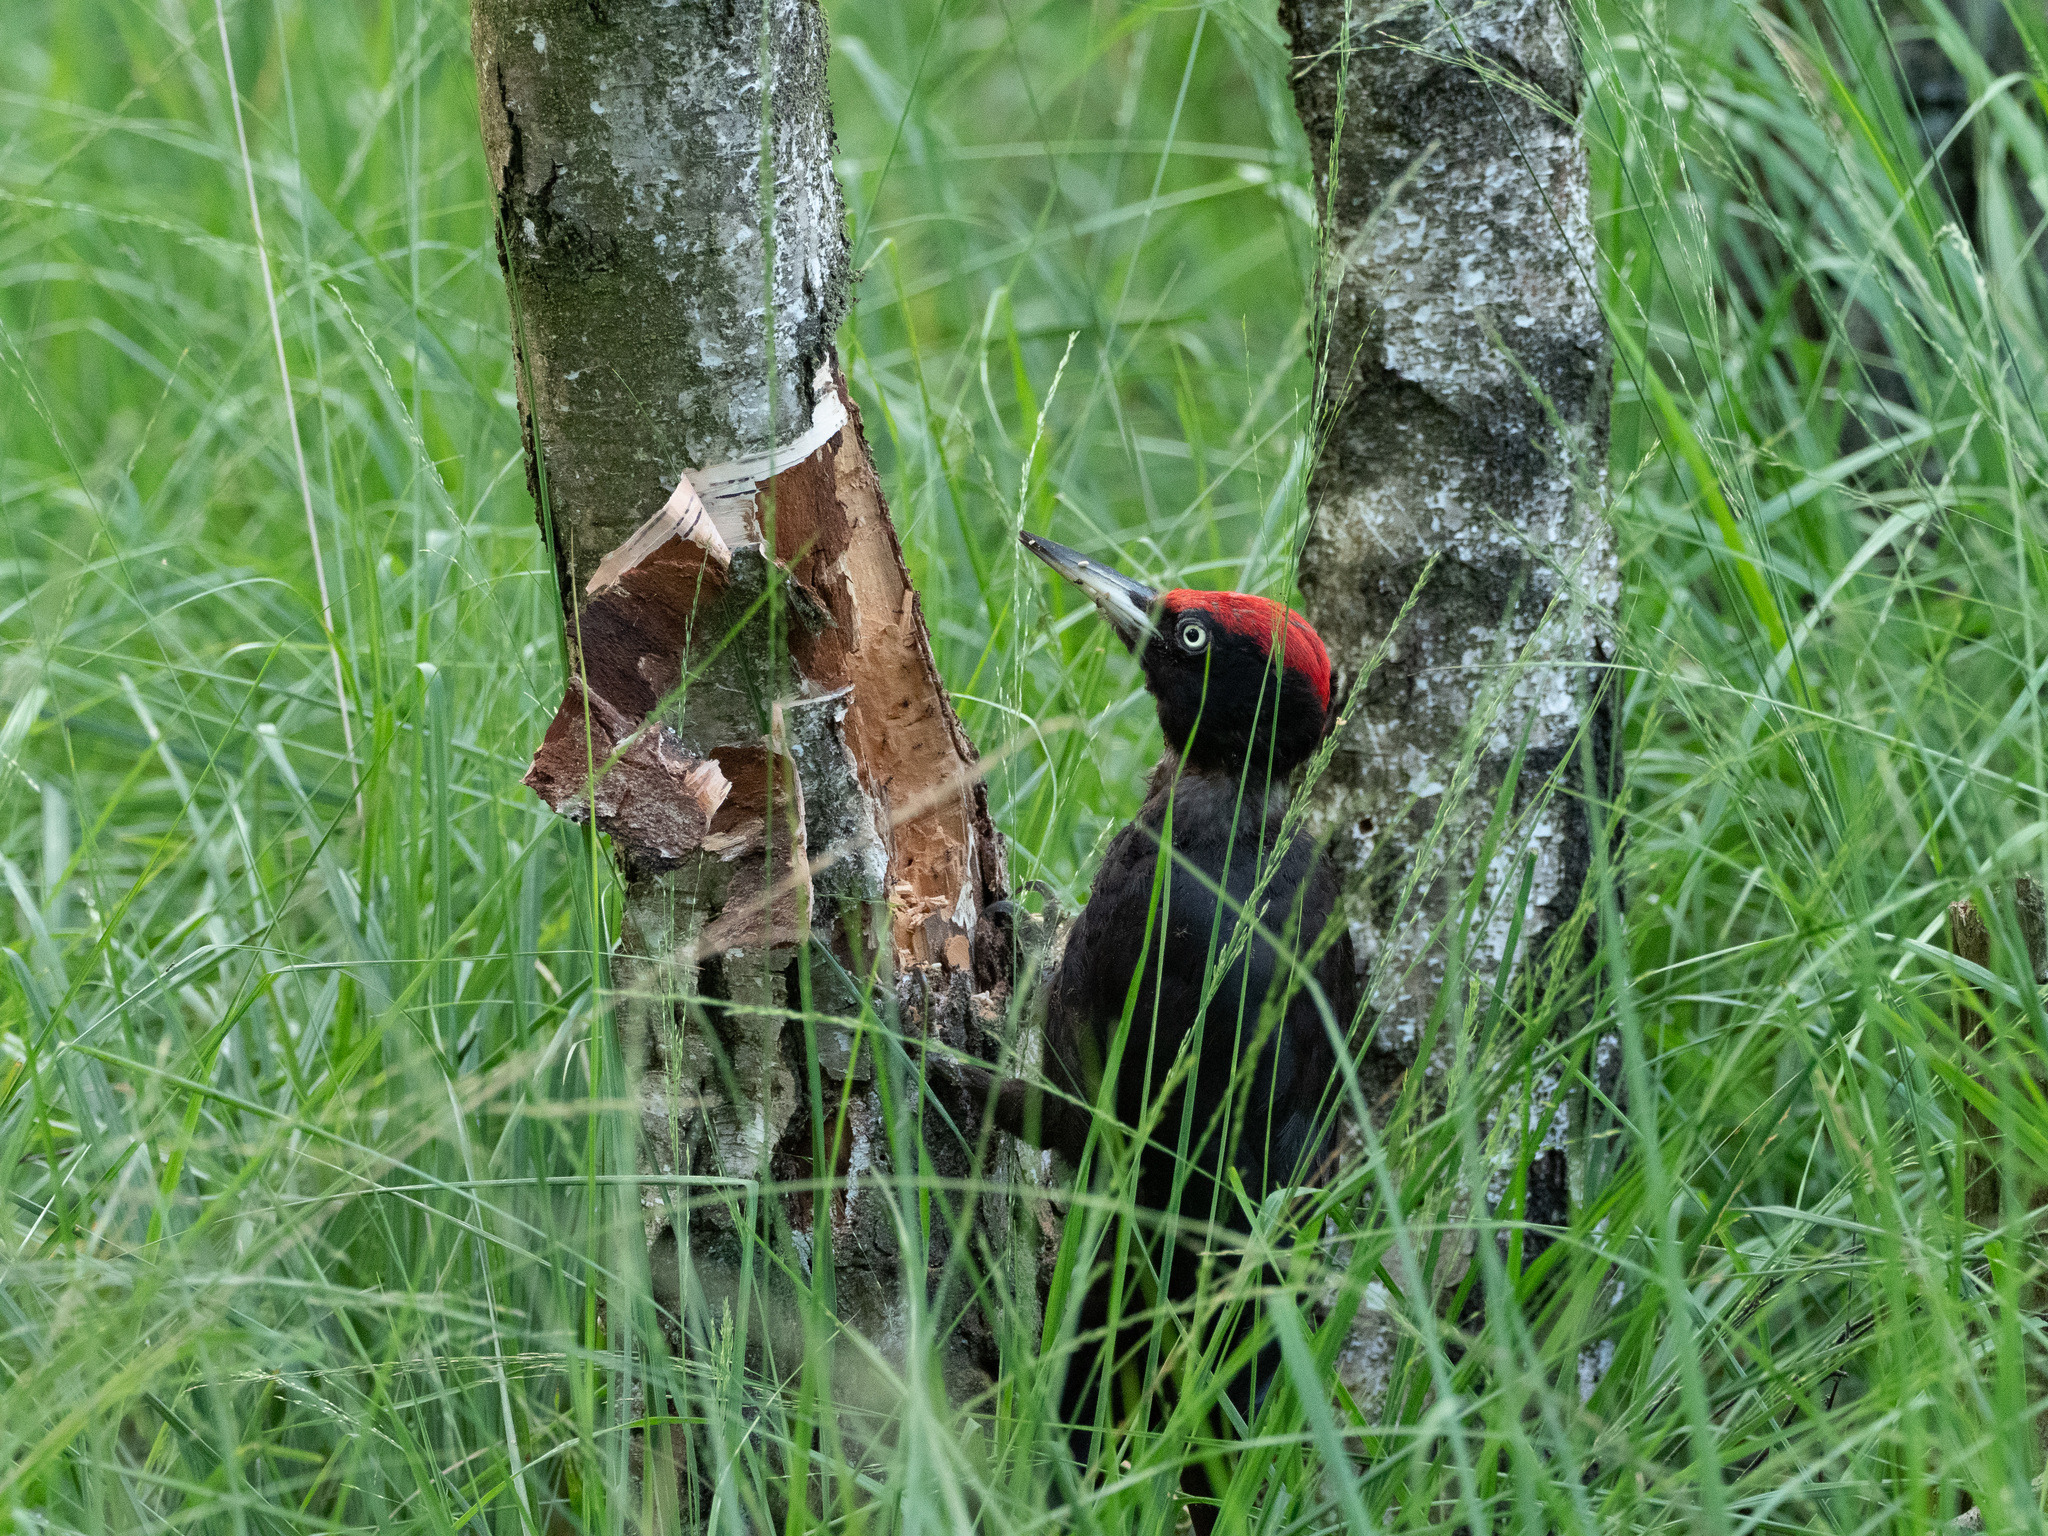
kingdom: Animalia
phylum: Chordata
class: Aves
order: Piciformes
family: Picidae
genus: Dryocopus
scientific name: Dryocopus martius
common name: Black woodpecker
